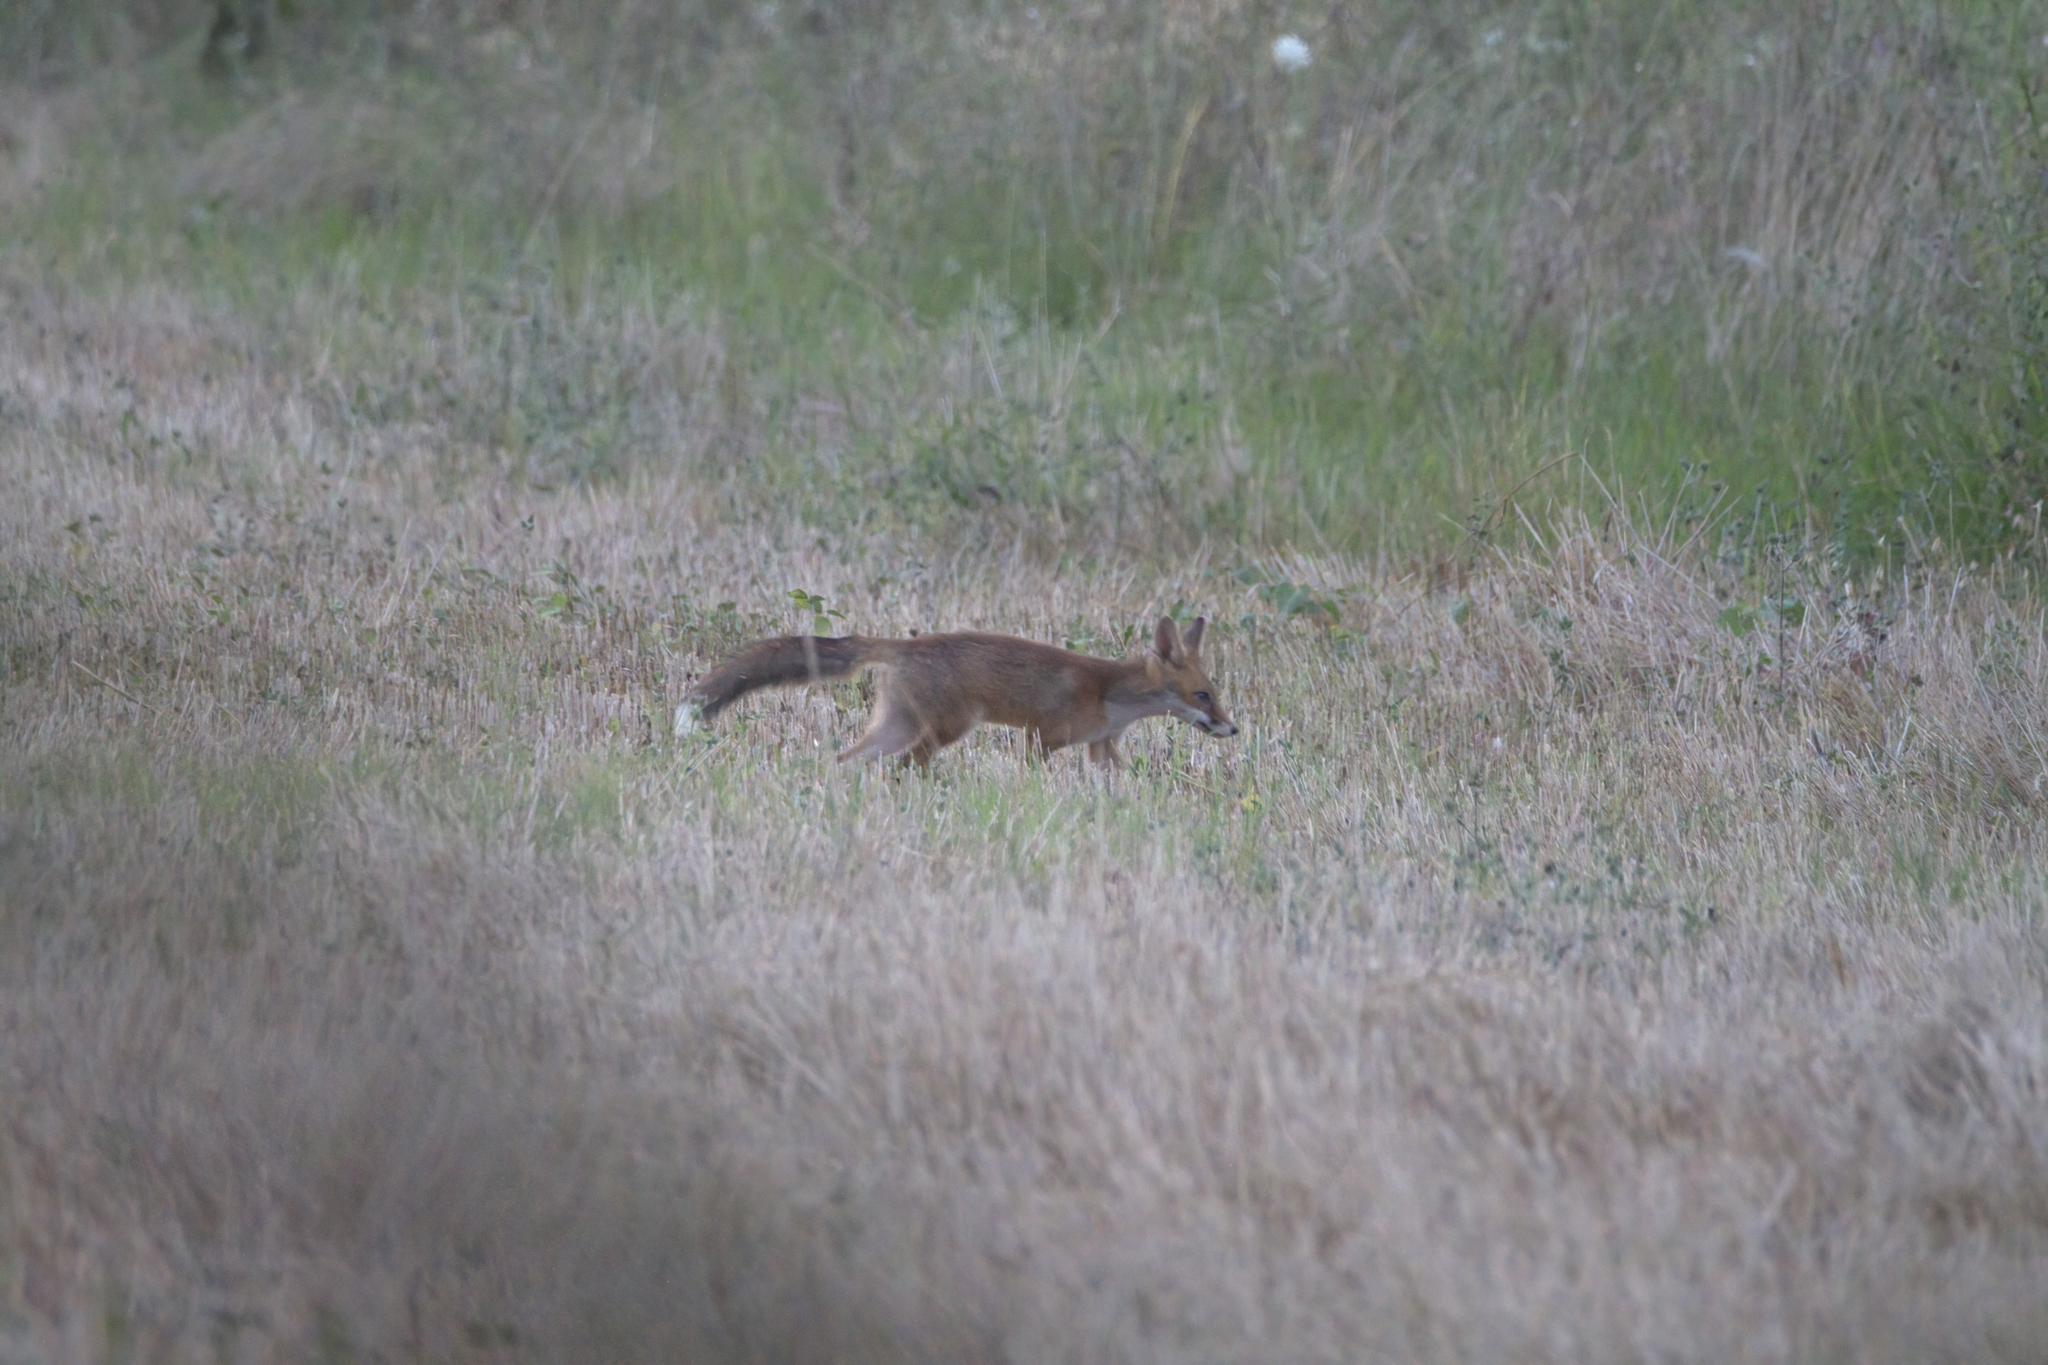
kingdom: Animalia
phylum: Chordata
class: Mammalia
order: Carnivora
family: Canidae
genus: Vulpes
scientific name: Vulpes vulpes
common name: Red fox
